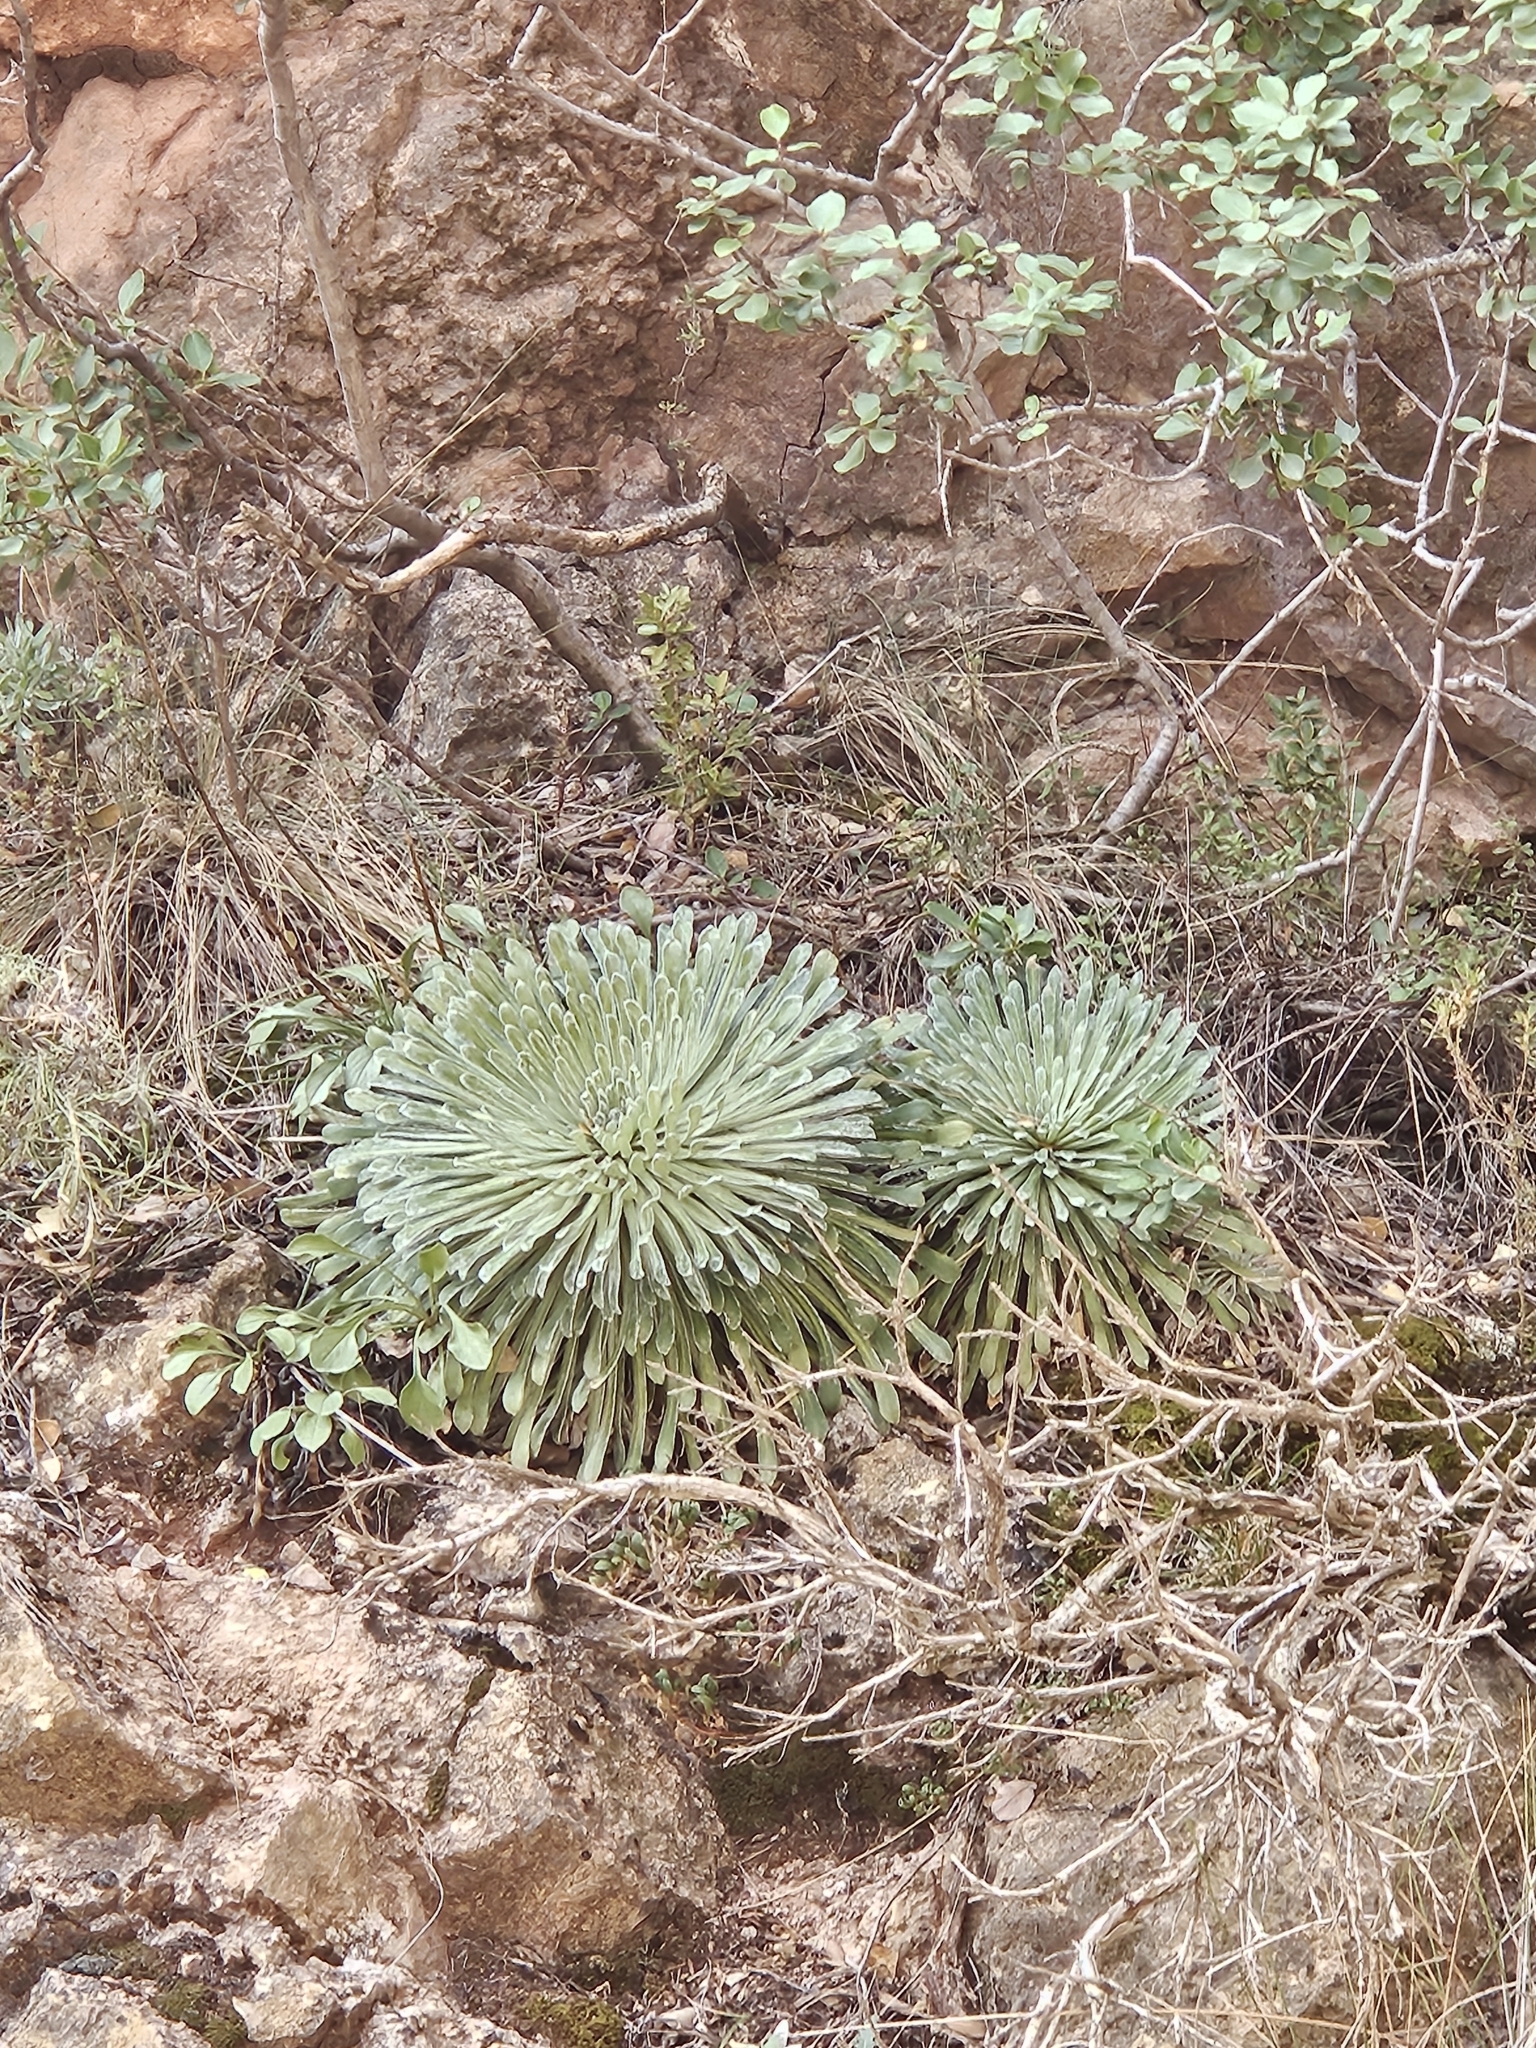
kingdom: Plantae
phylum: Tracheophyta
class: Magnoliopsida
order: Saxifragales
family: Saxifragaceae
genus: Saxifraga
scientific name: Saxifraga longifolia
